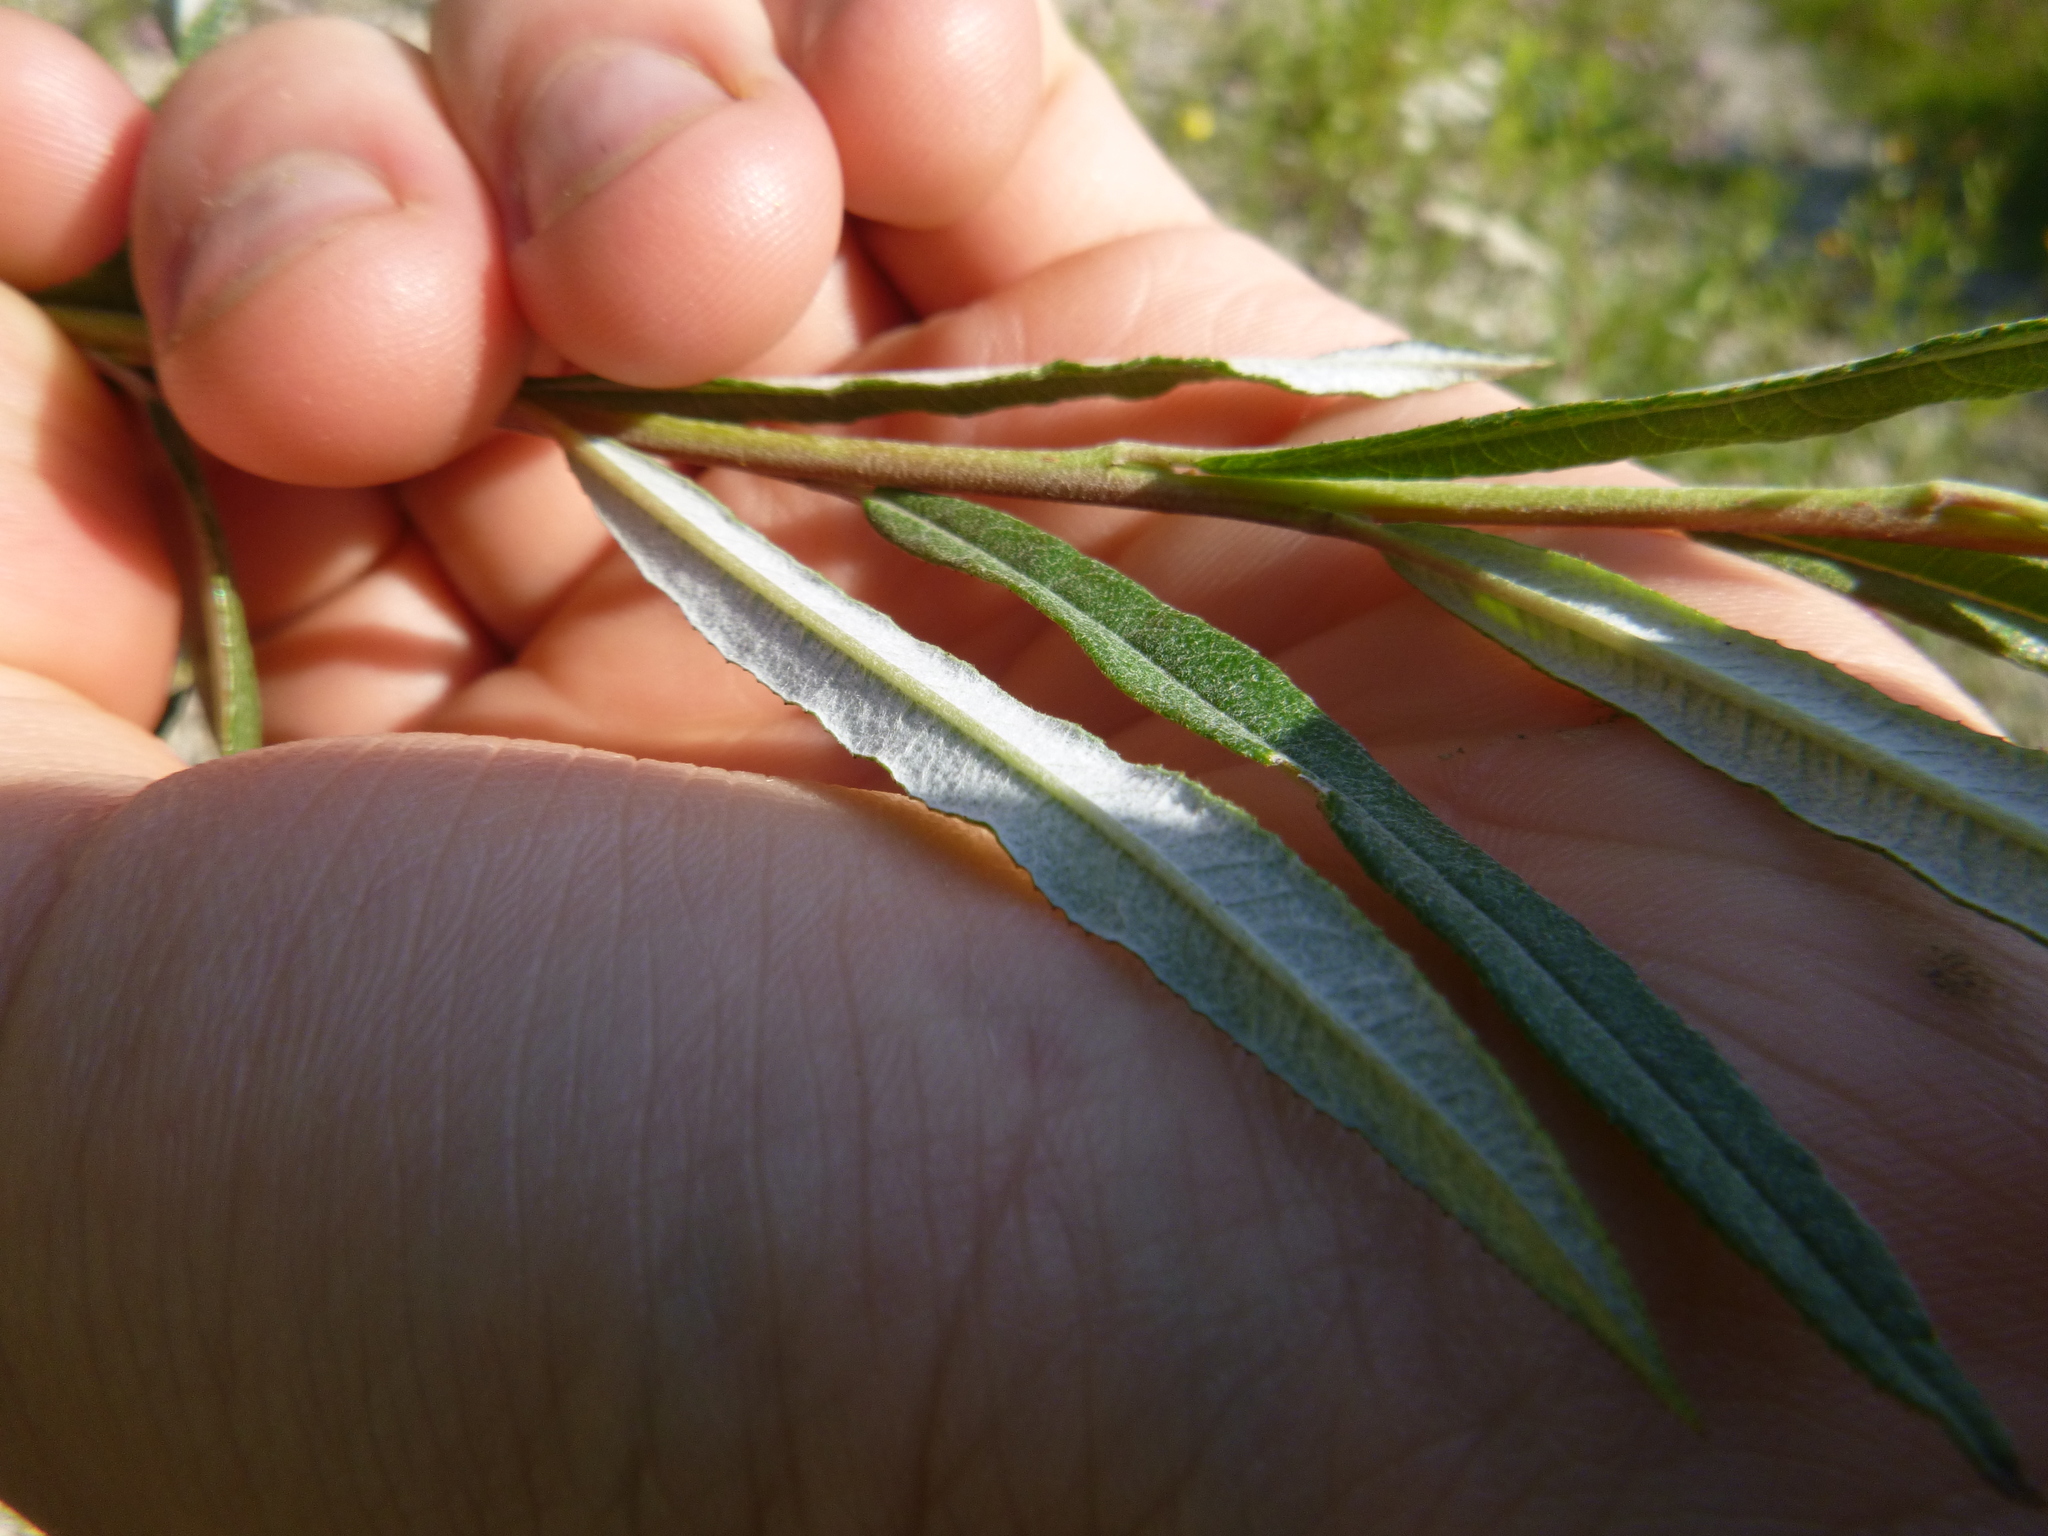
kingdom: Plantae
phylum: Tracheophyta
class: Magnoliopsida
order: Malpighiales
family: Salicaceae
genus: Salix
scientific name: Salix eleagnos
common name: Elaeagnus willow
